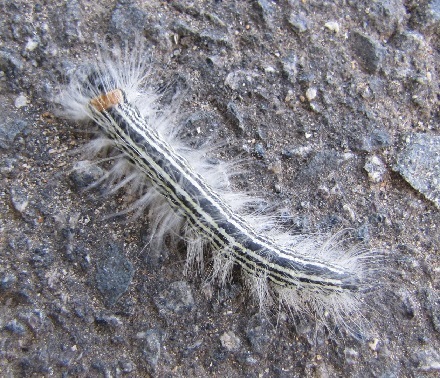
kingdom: Animalia
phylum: Arthropoda
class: Insecta
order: Lepidoptera
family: Notodontidae
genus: Datana
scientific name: Datana contracta
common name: Contracted datana
